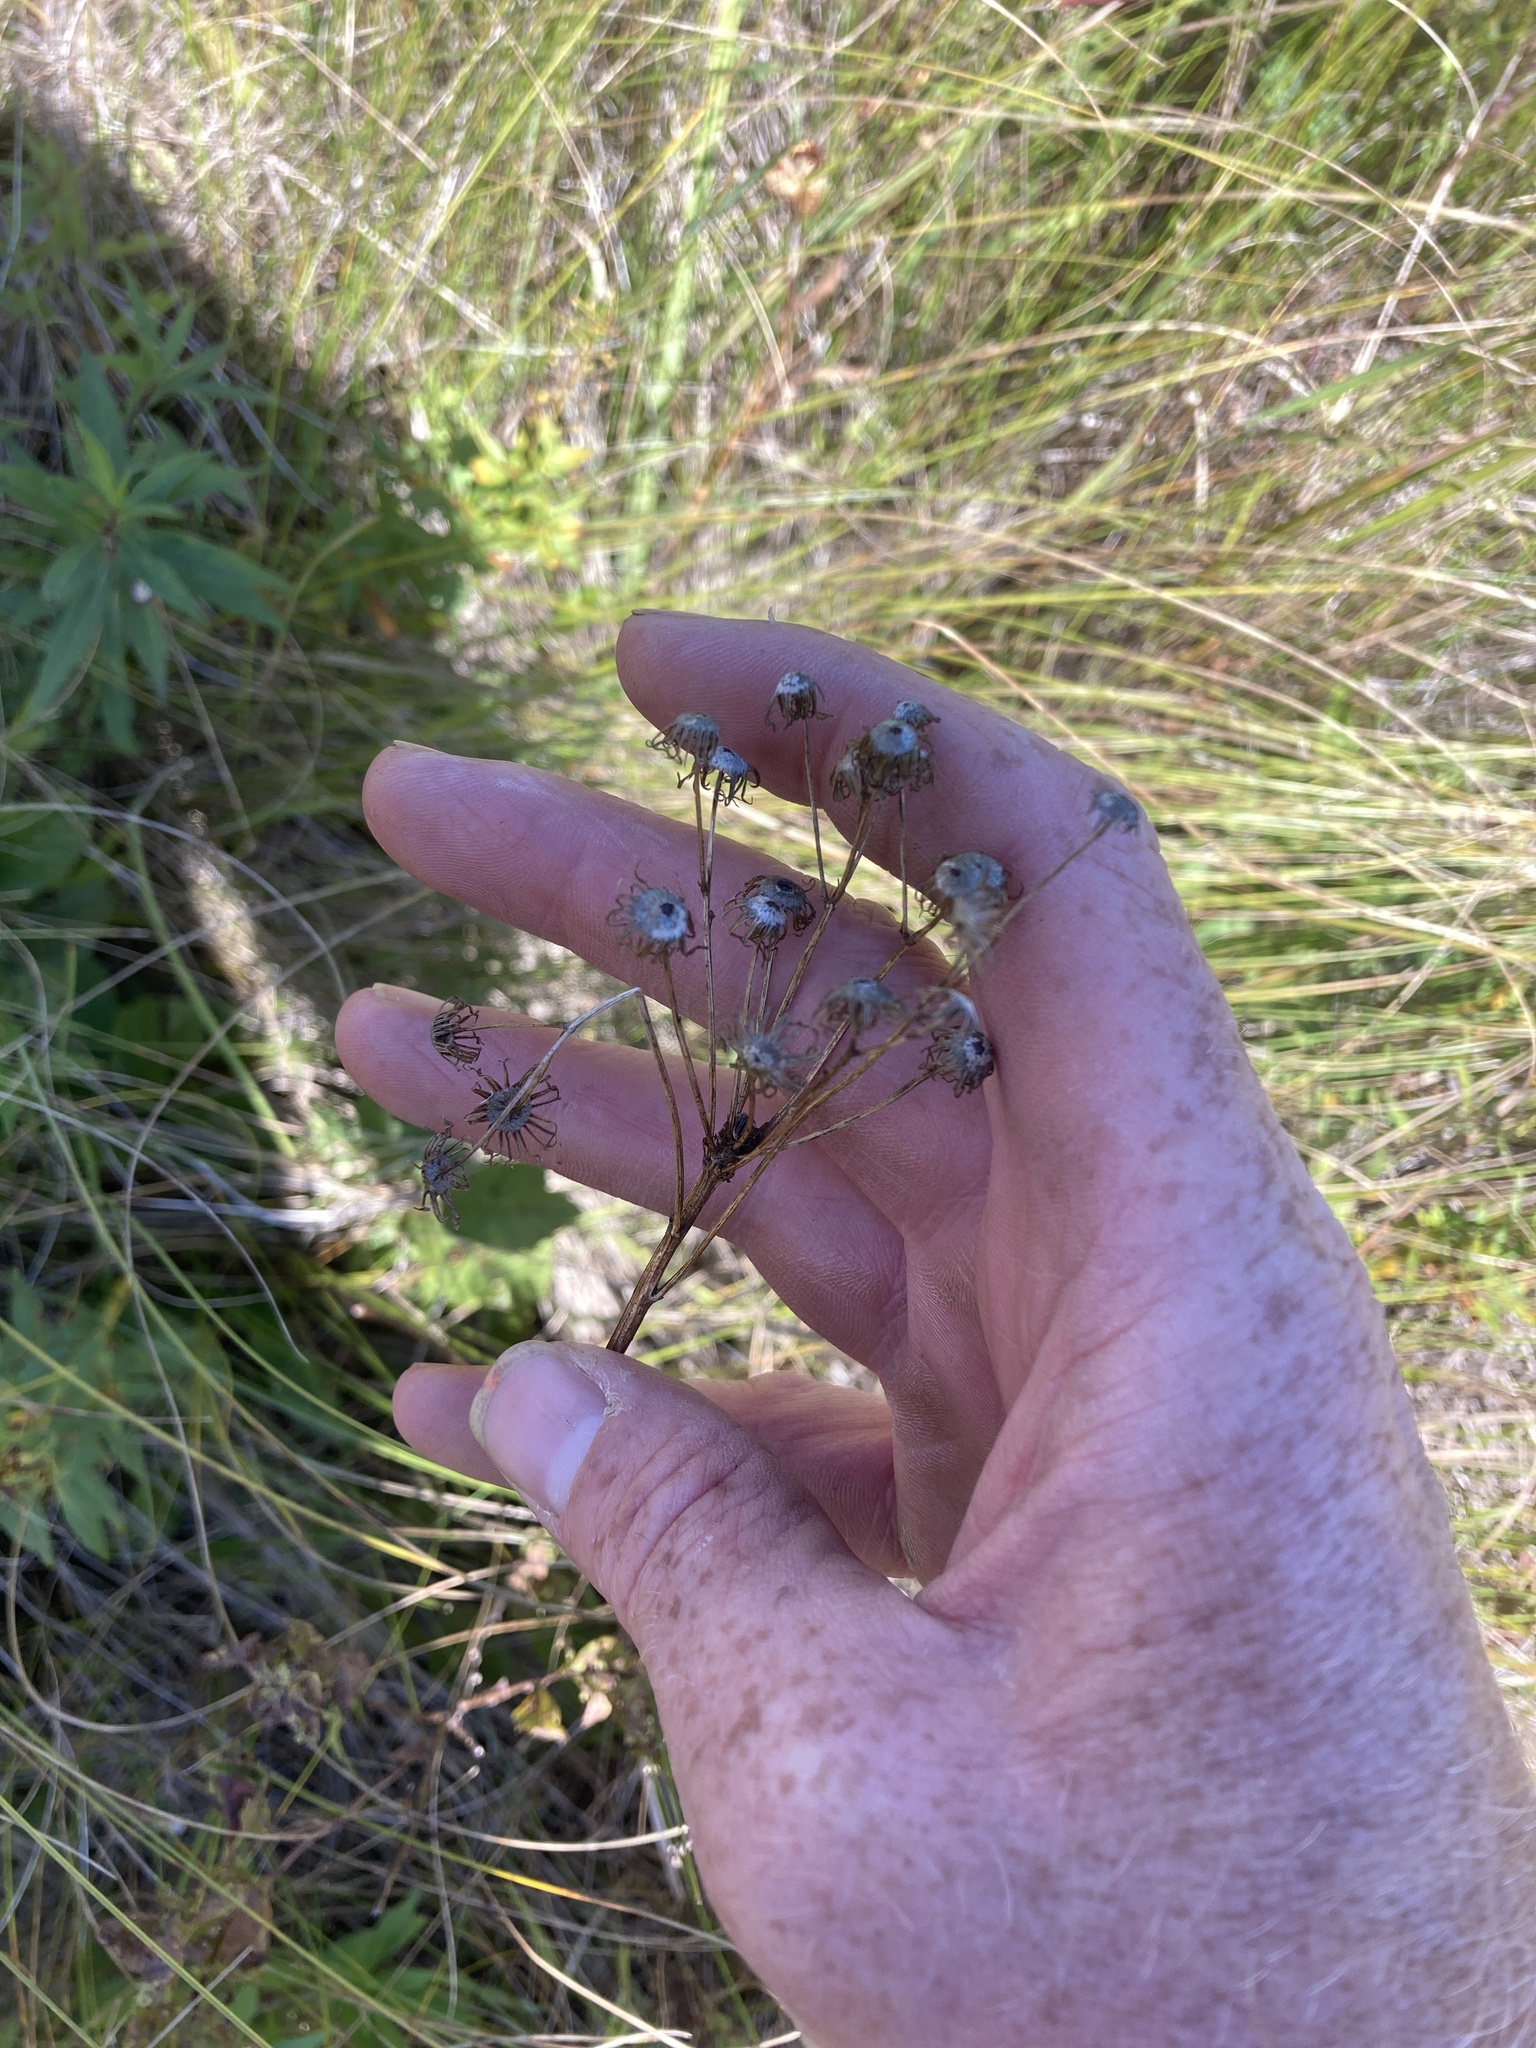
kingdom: Plantae
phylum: Tracheophyta
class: Magnoliopsida
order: Asterales
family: Asteraceae
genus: Packera
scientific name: Packera schweinitziana
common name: Schweinitz's ragwort
